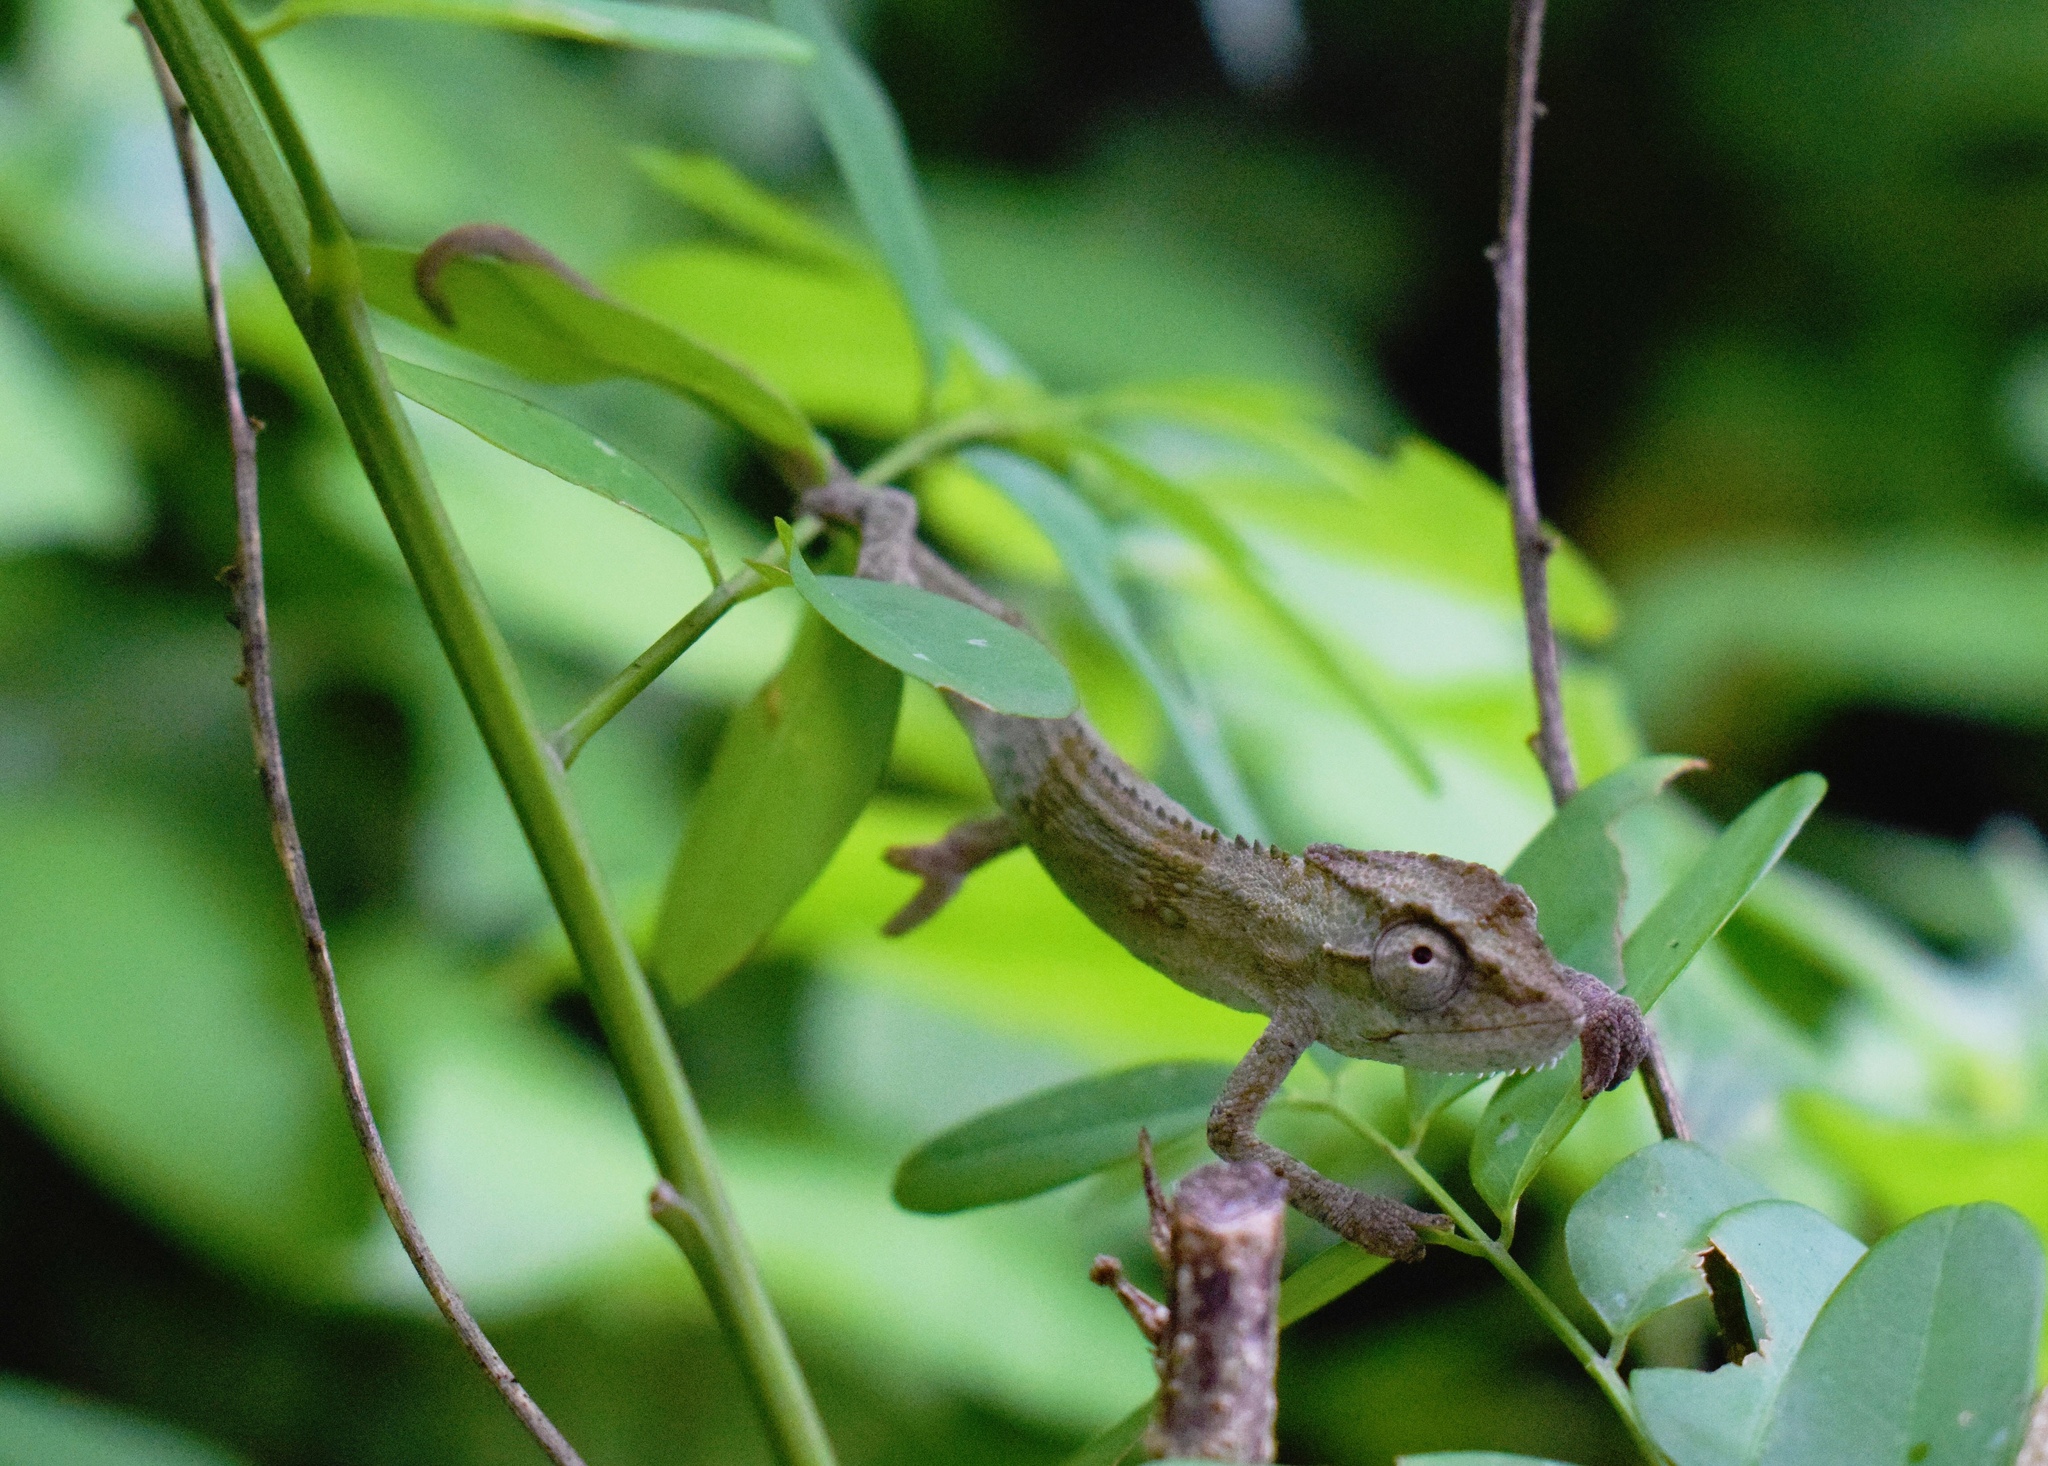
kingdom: Animalia
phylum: Chordata
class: Squamata
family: Chamaeleonidae
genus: Bradypodion
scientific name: Bradypodion melanocephalum
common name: Black-headed dwarf chameleon
